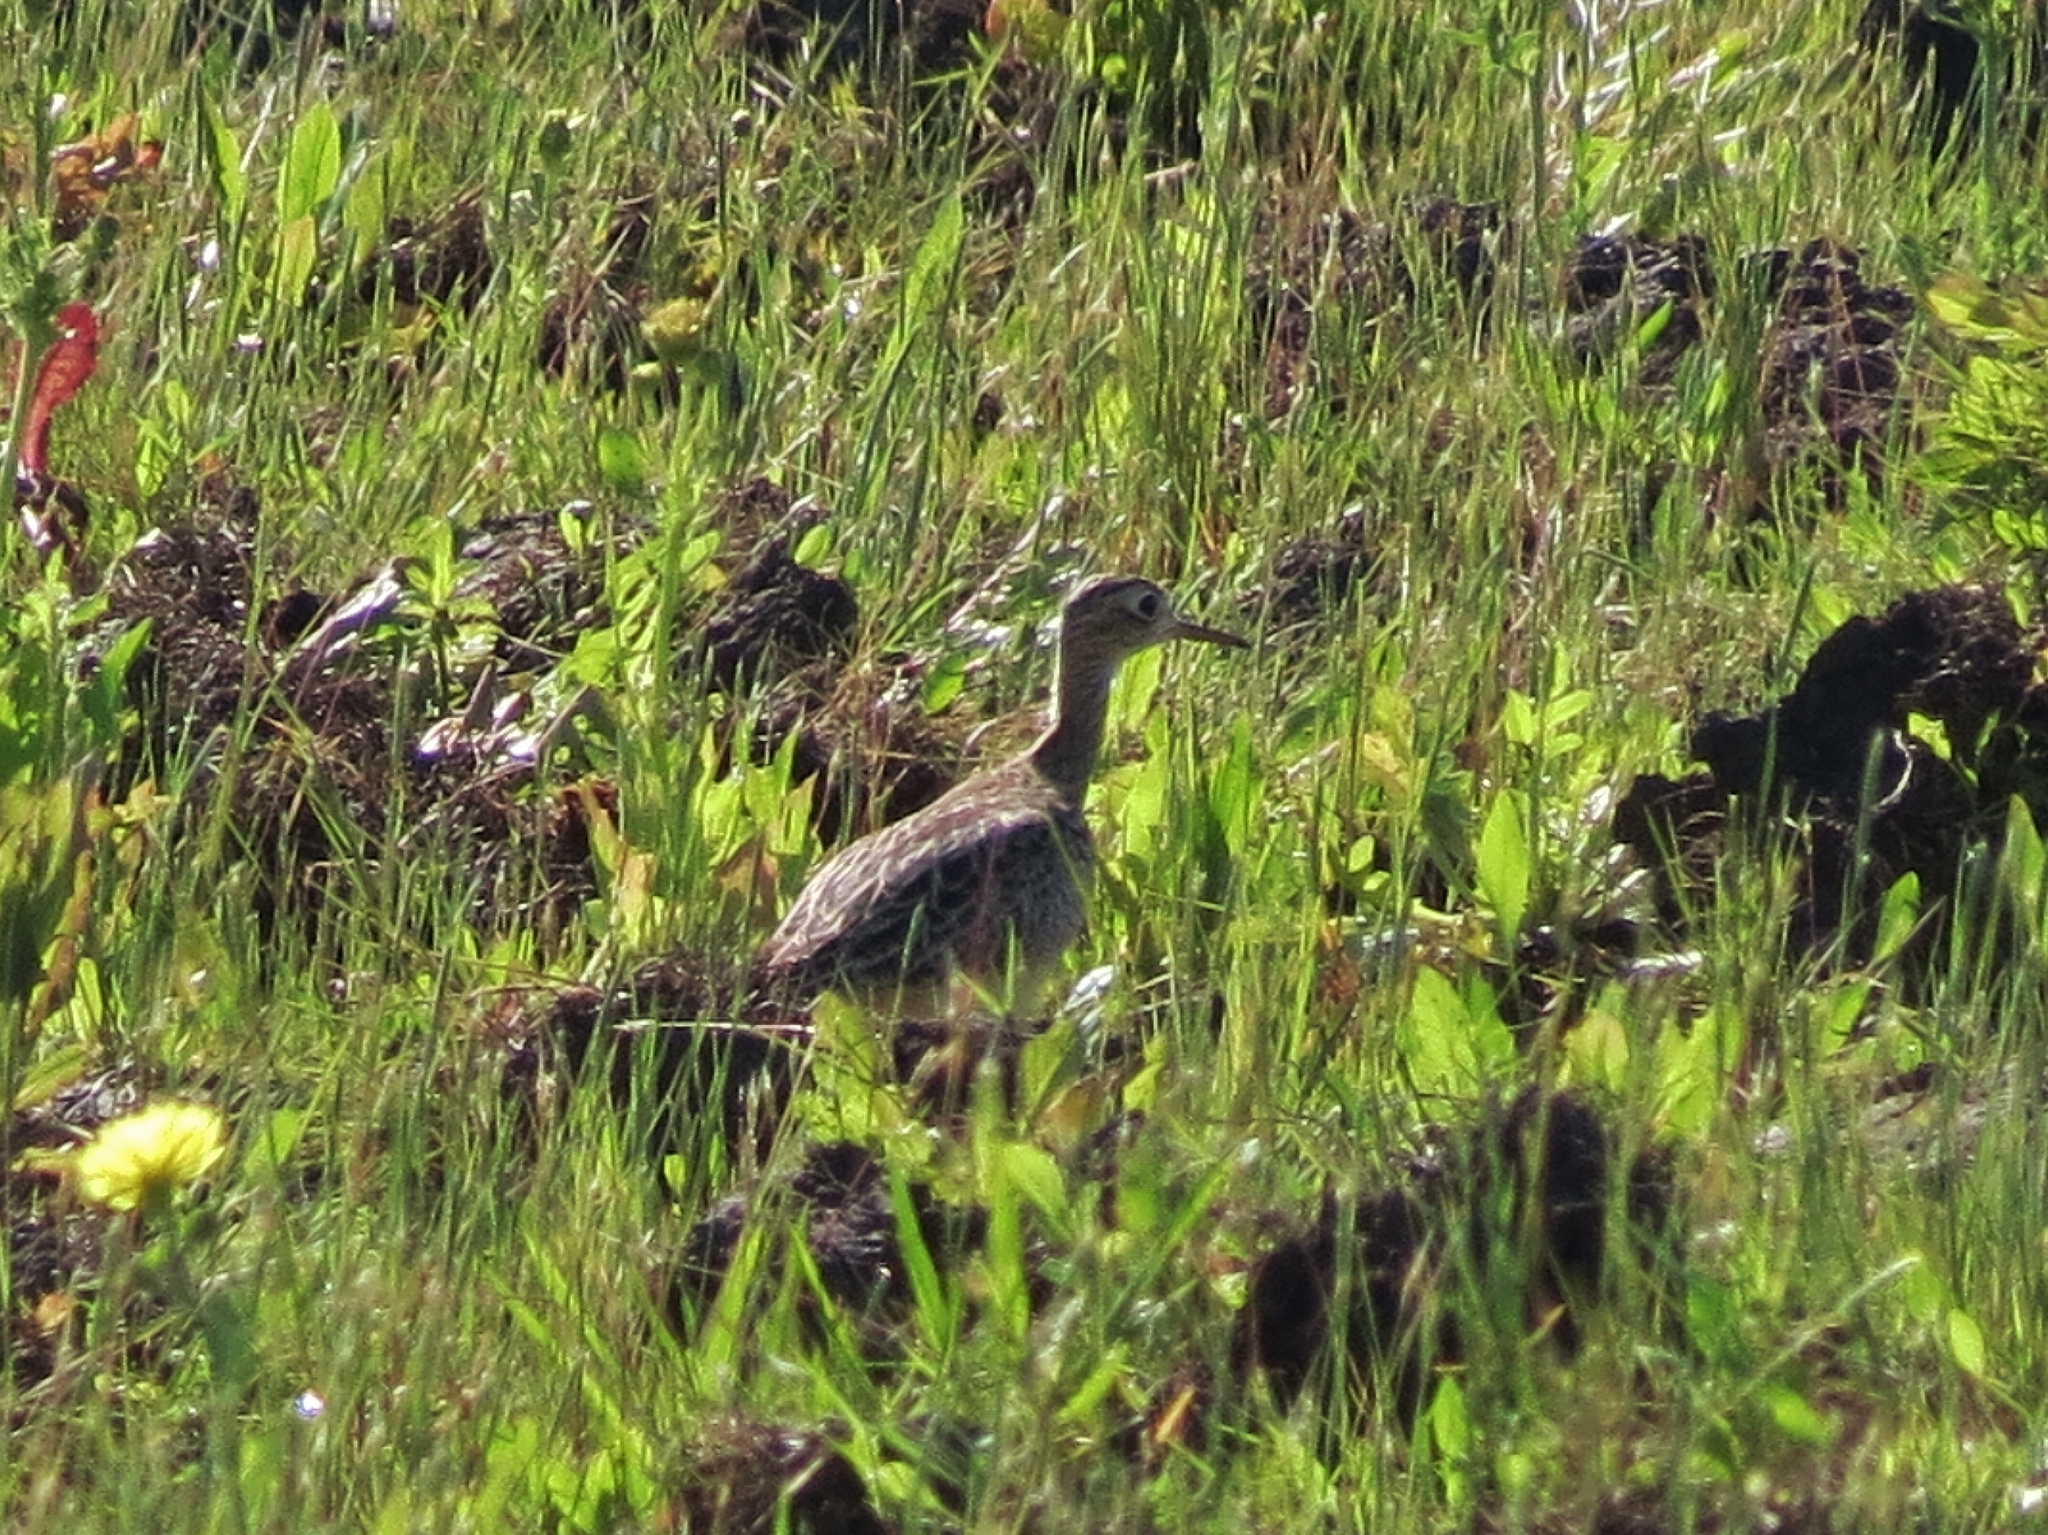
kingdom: Animalia
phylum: Chordata
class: Aves
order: Charadriiformes
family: Scolopacidae
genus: Bartramia
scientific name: Bartramia longicauda
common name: Upland sandpiper
